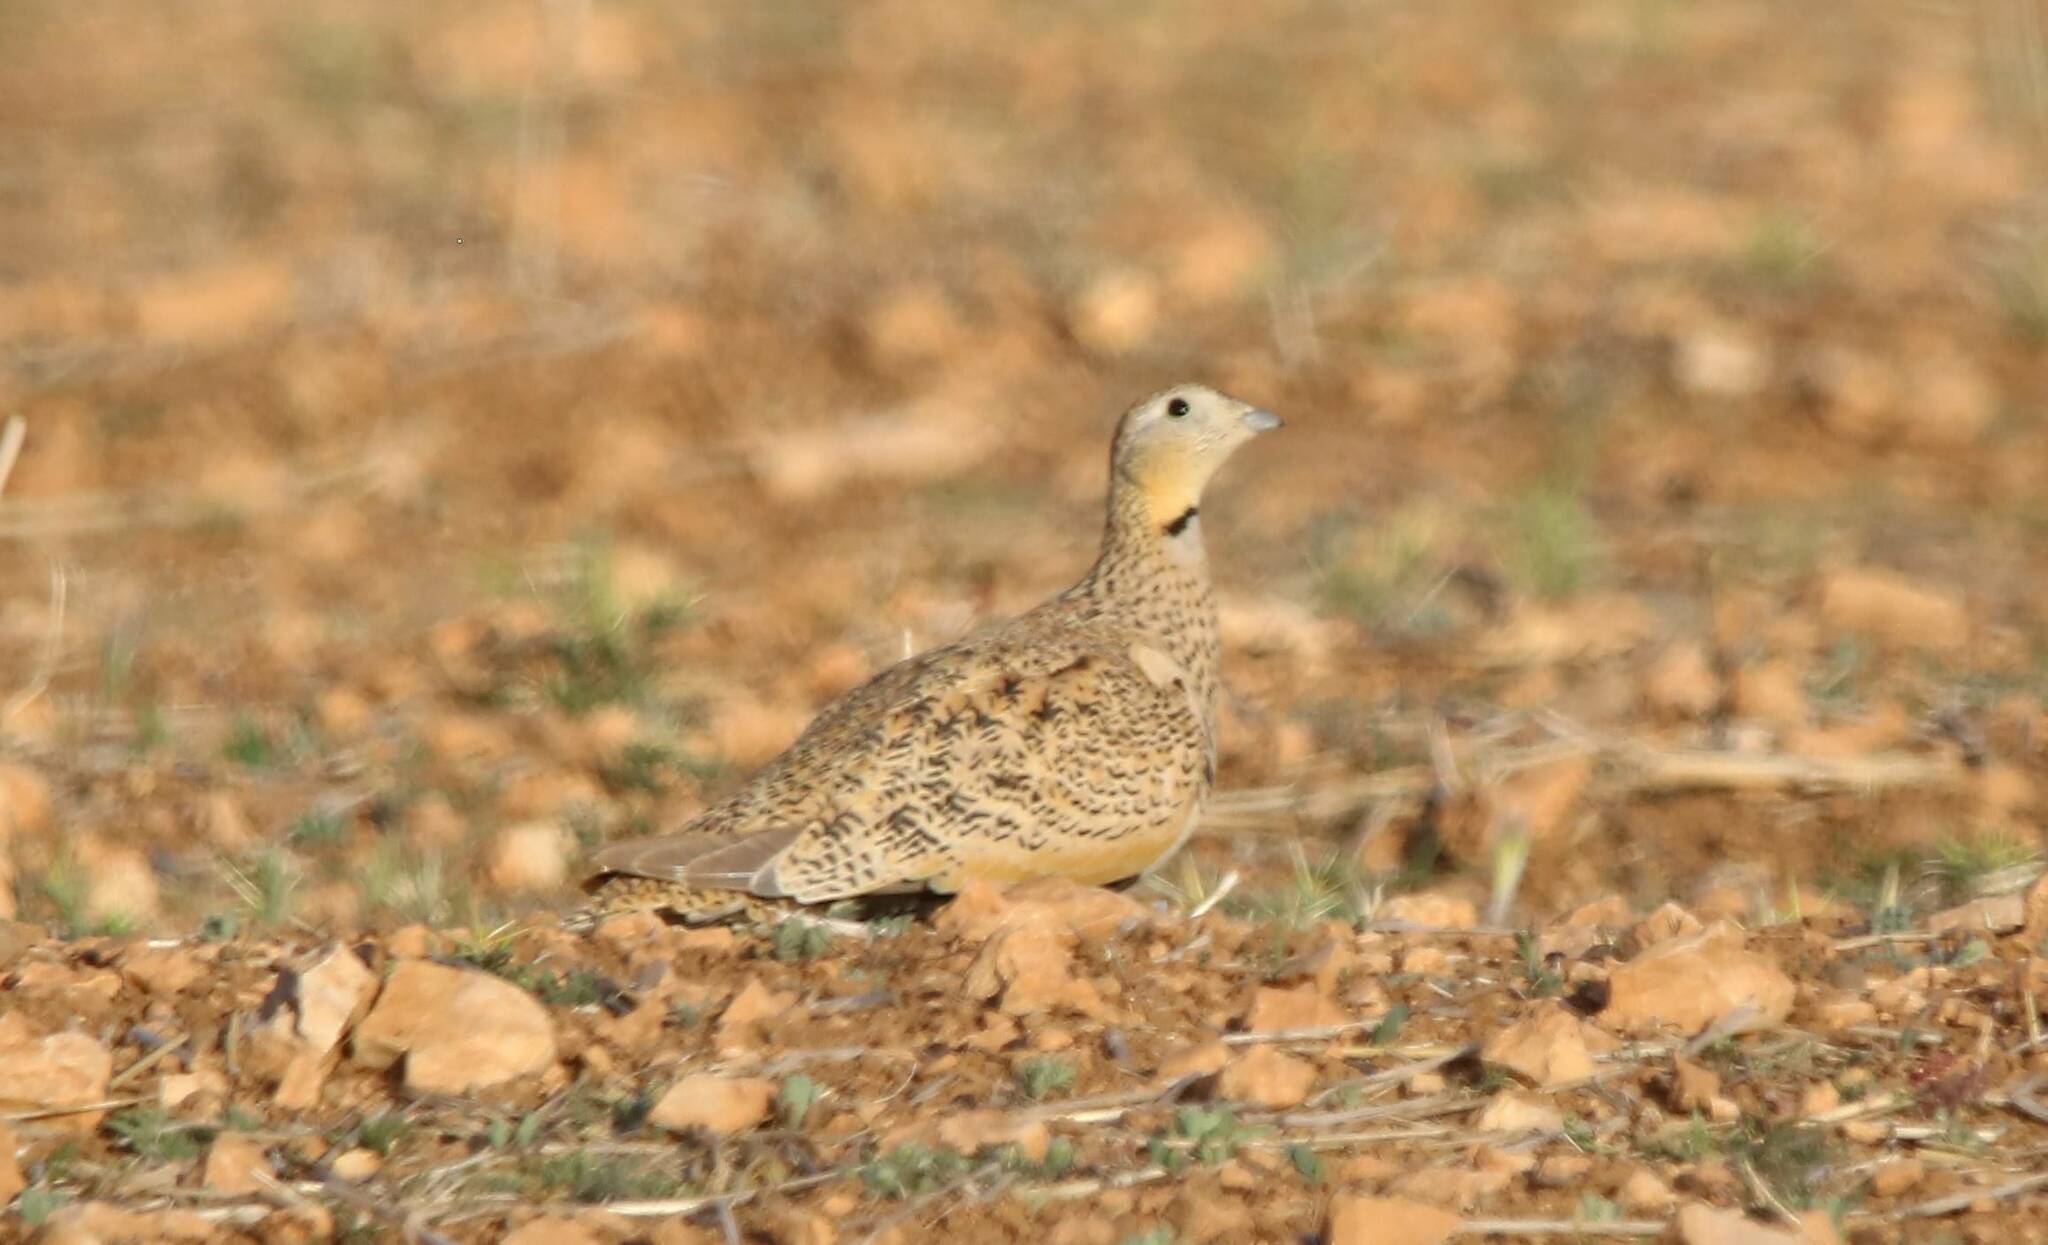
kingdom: Animalia
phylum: Chordata
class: Aves
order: Pteroclidiformes
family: Pteroclididae
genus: Pterocles
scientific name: Pterocles orientalis
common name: Black-bellied sandgrouse
